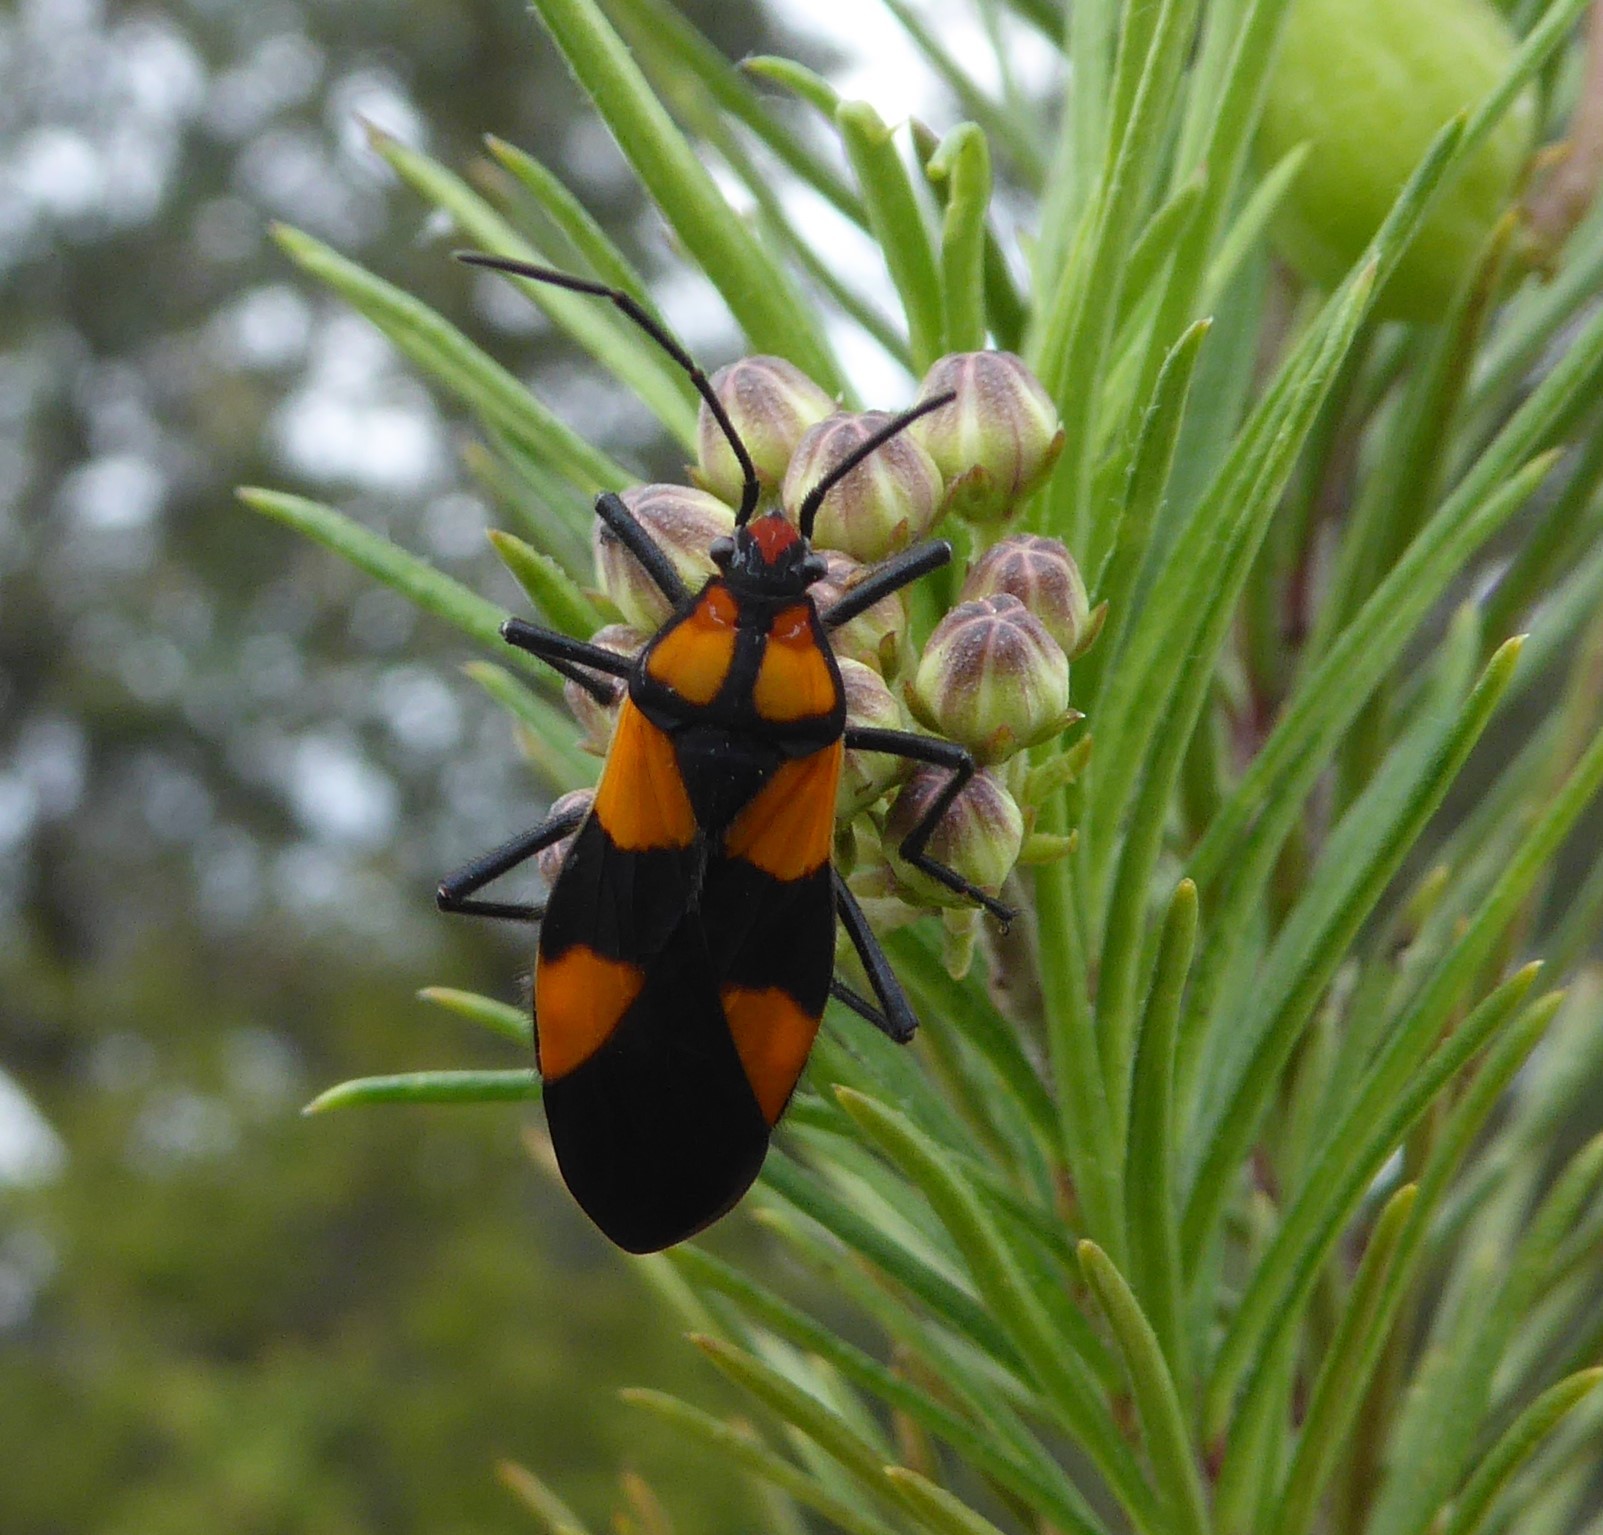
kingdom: Animalia
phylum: Arthropoda
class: Insecta
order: Hemiptera
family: Lygaeidae
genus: Oncopeltus
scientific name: Oncopeltus varicolor
